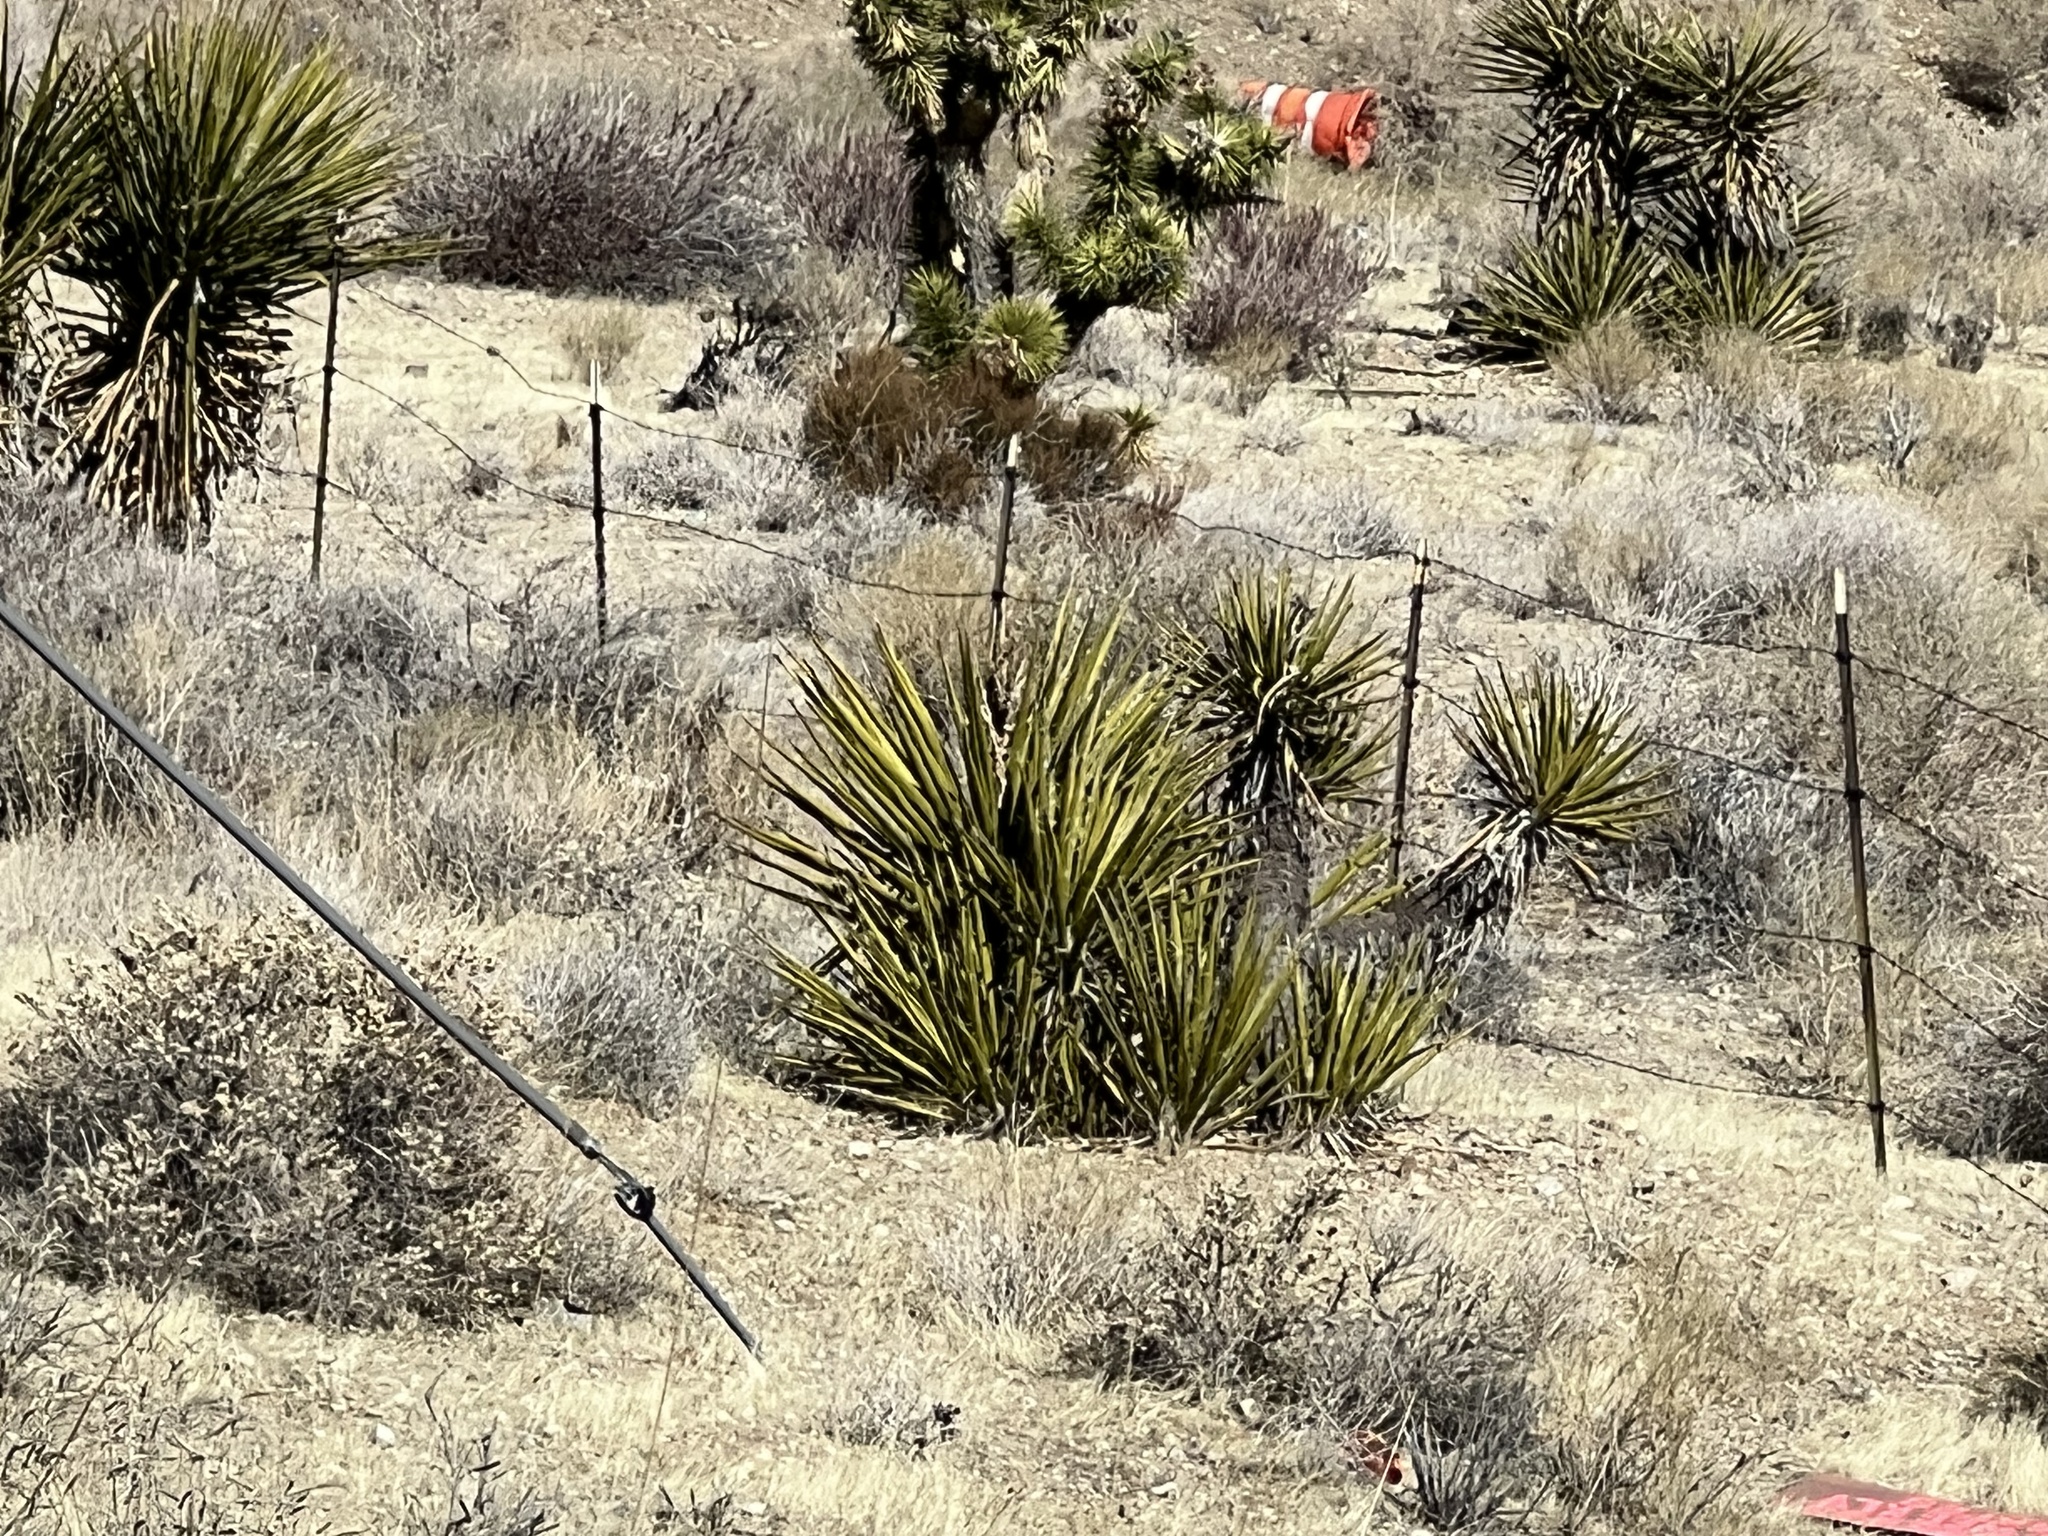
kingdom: Plantae
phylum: Tracheophyta
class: Liliopsida
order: Asparagales
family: Asparagaceae
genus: Yucca
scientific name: Yucca schidigera
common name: Mojave yucca
